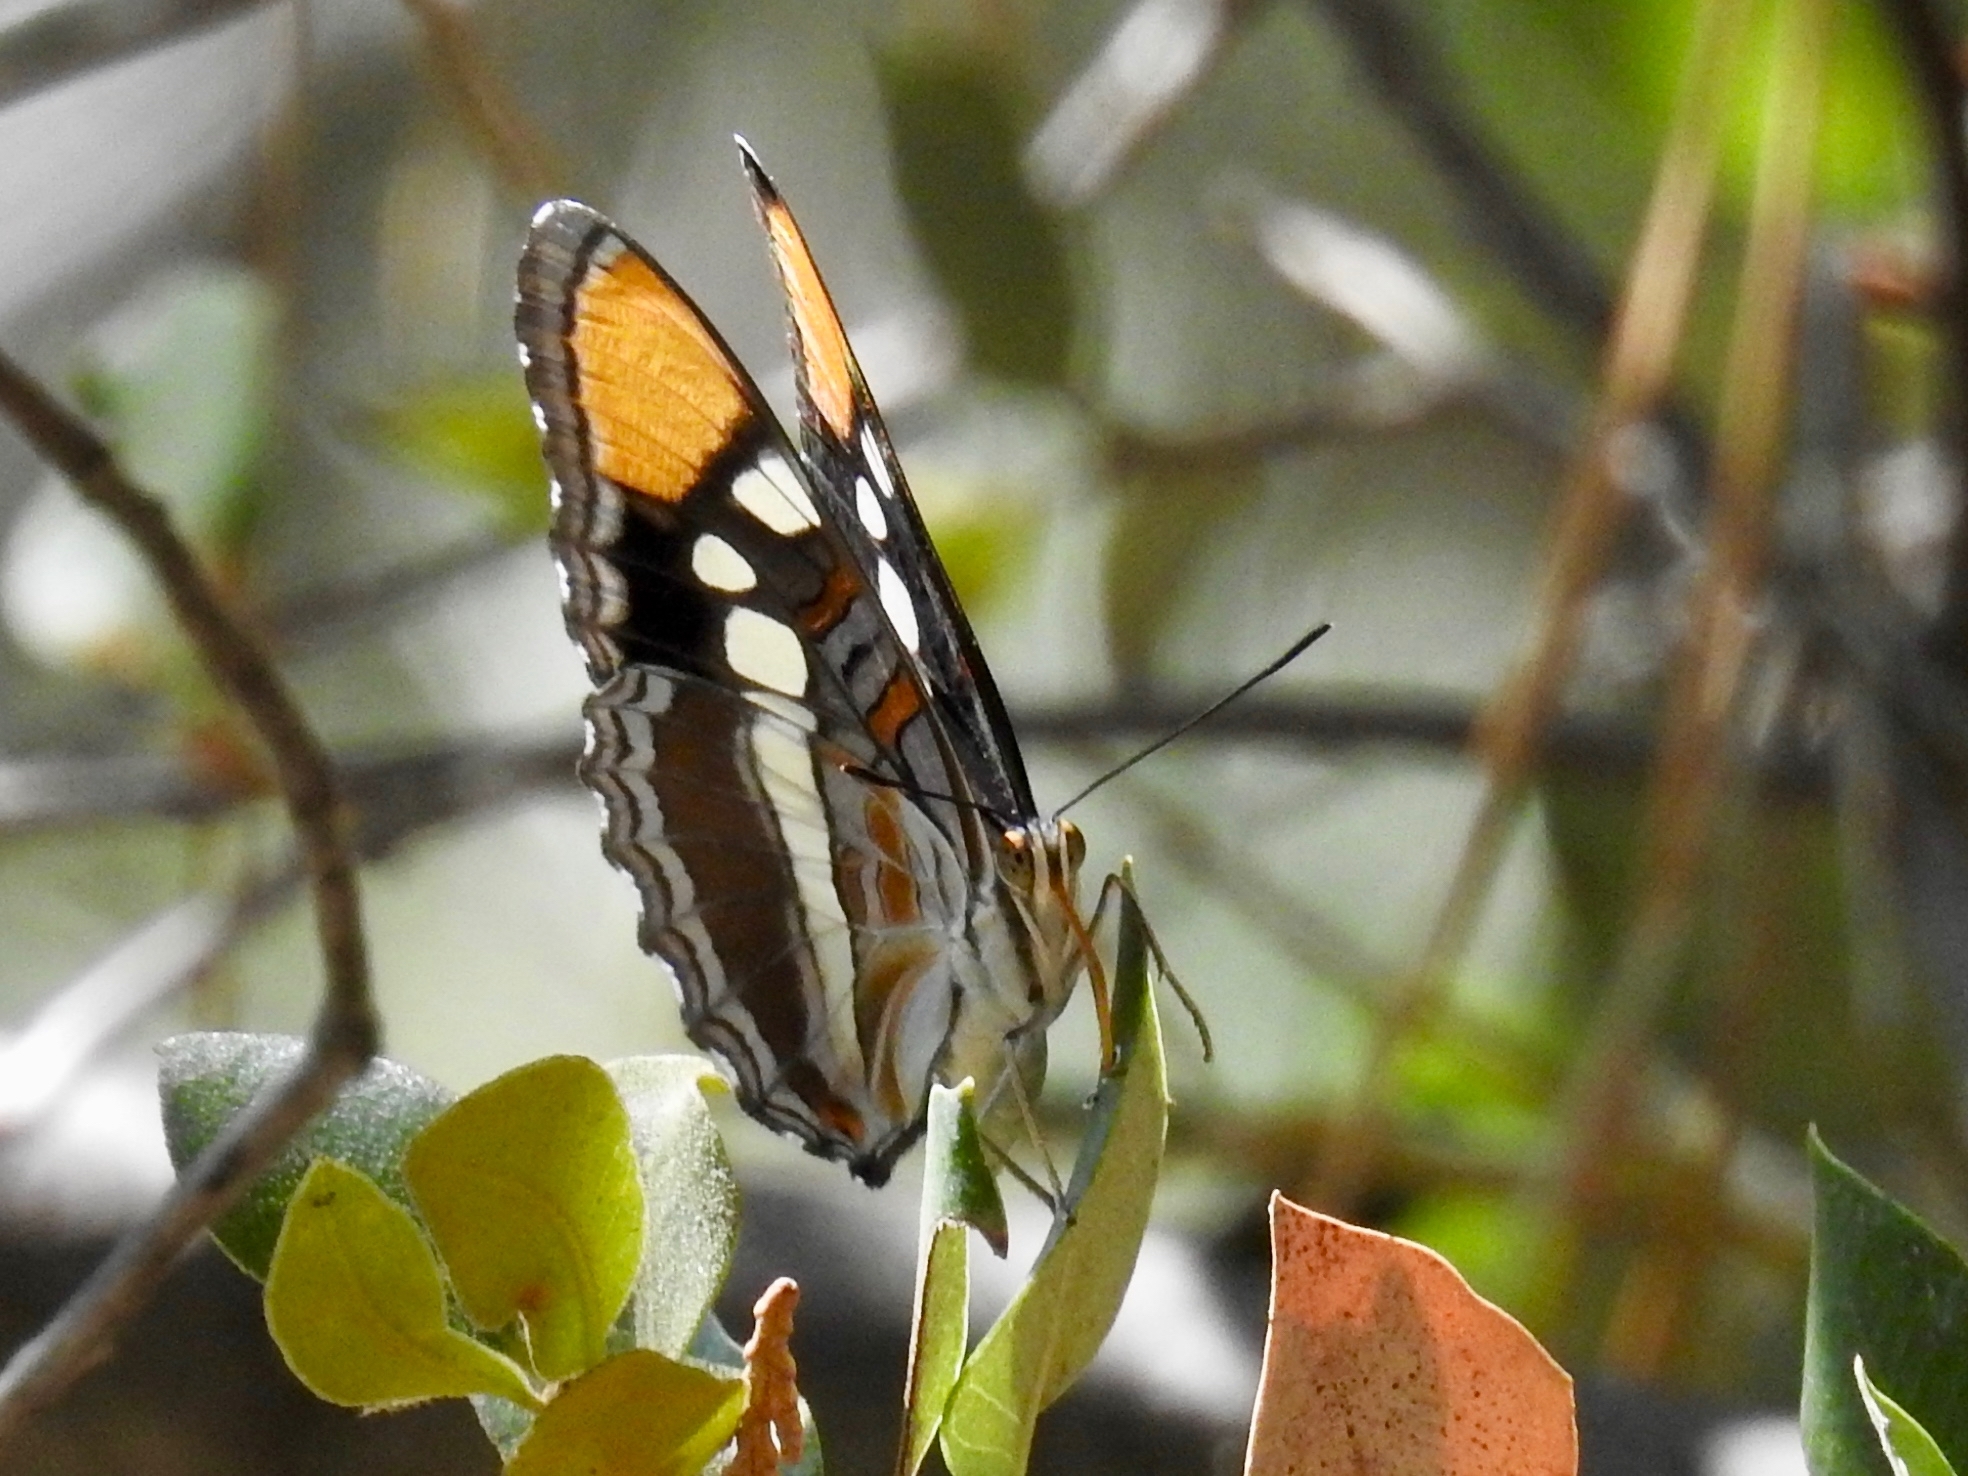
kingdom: Animalia
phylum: Arthropoda
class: Insecta
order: Lepidoptera
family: Nymphalidae
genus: Limenitis
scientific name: Limenitis bredowii
